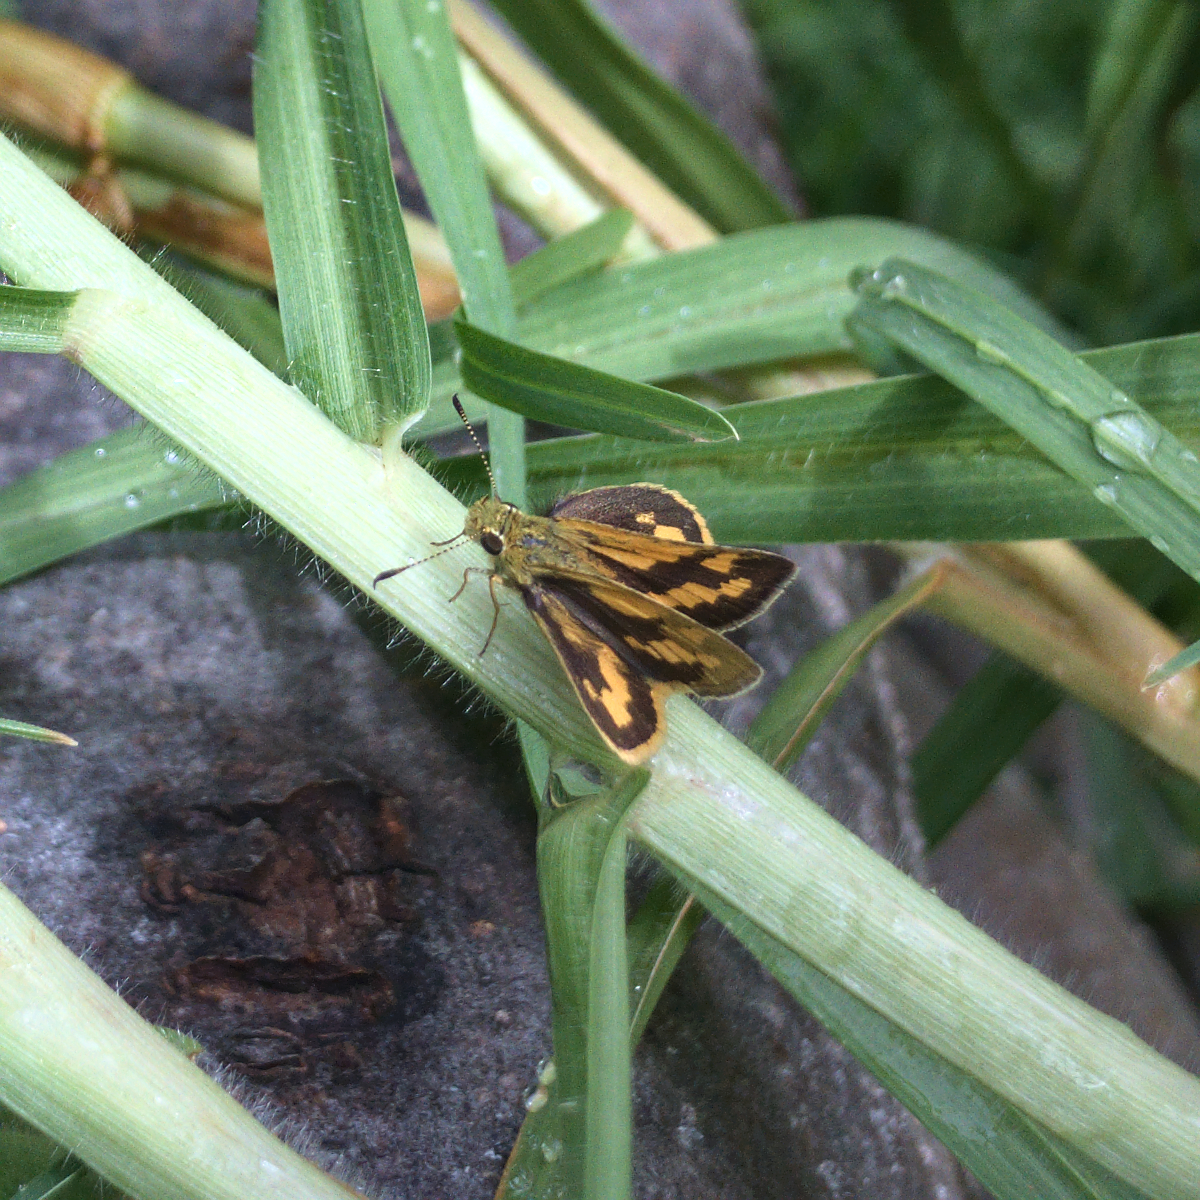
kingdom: Animalia
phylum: Arthropoda
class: Insecta
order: Lepidoptera
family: Hesperiidae
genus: Ocybadistes
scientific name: Ocybadistes walkeri
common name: Yellow-banded dart
